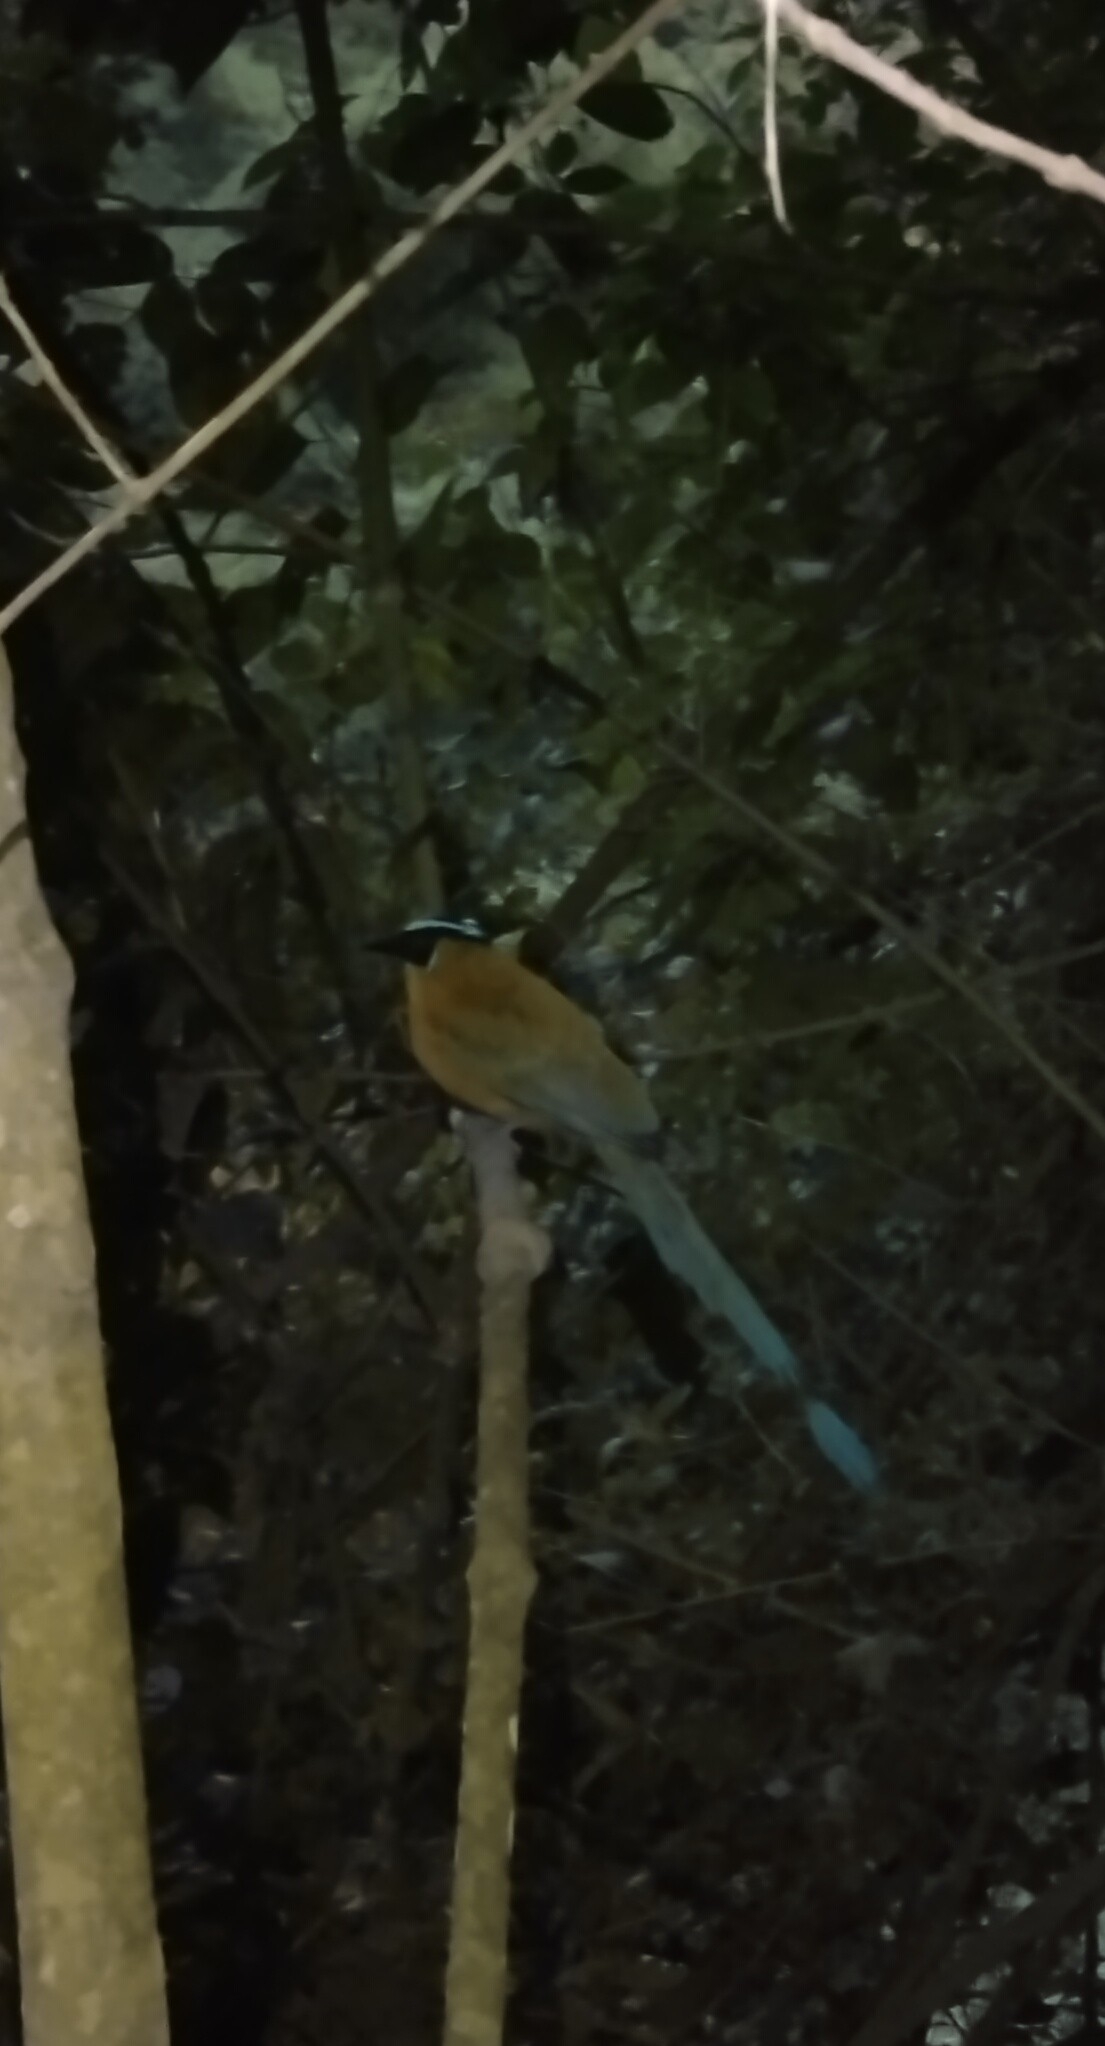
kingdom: Animalia
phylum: Chordata
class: Aves
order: Coraciiformes
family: Momotidae
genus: Momotus
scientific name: Momotus aequatorialis
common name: Andean motmot
